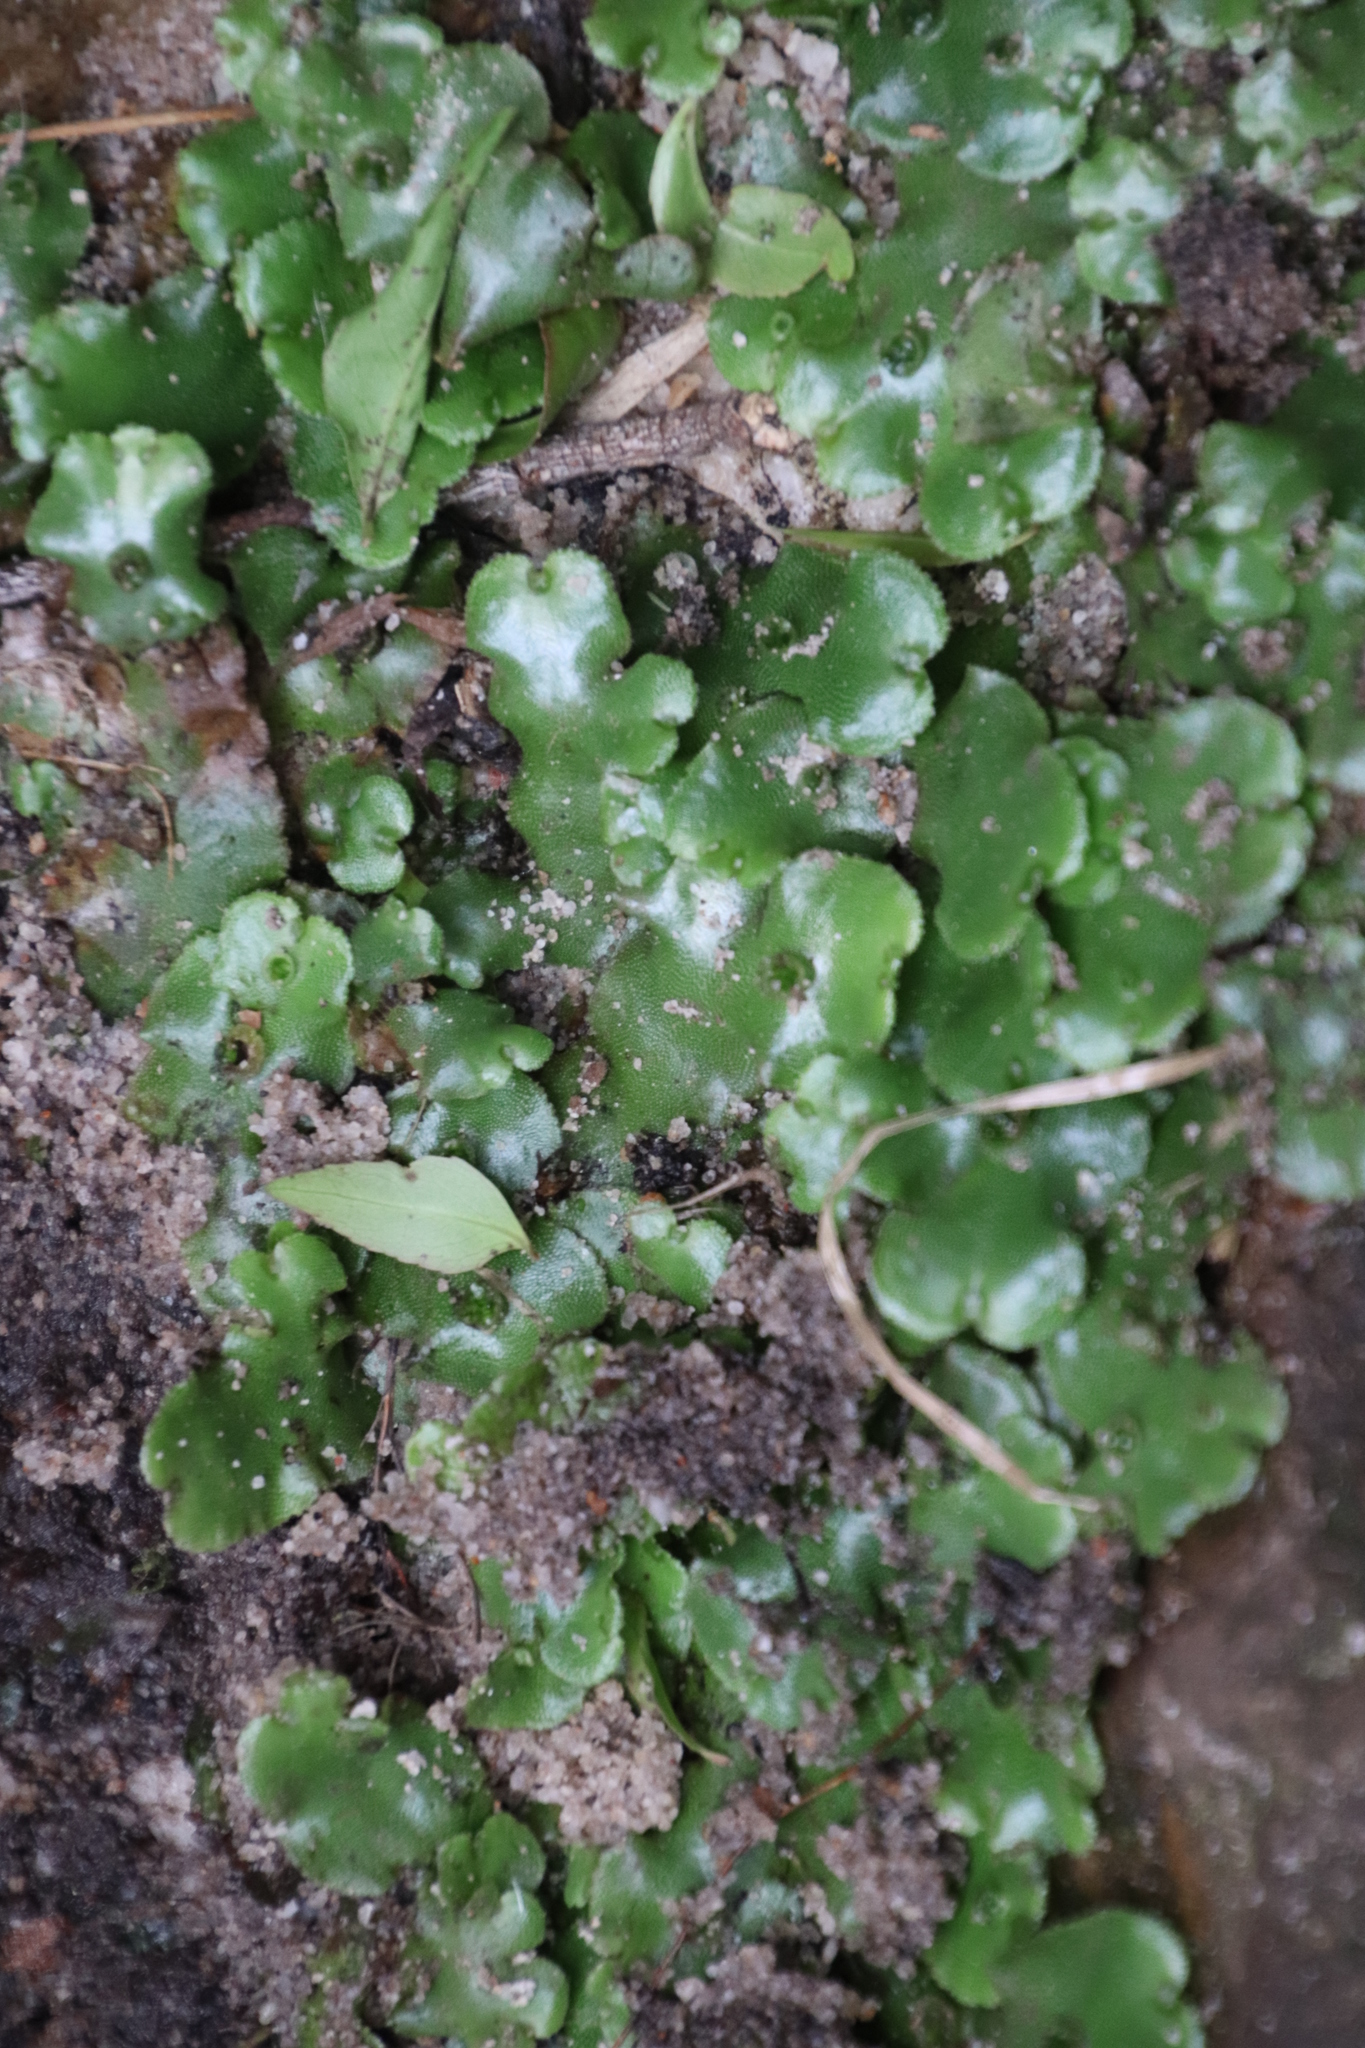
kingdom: Plantae
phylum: Marchantiophyta
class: Marchantiopsida
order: Marchantiales
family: Marchantiaceae
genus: Marchantia
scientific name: Marchantia berteroana
